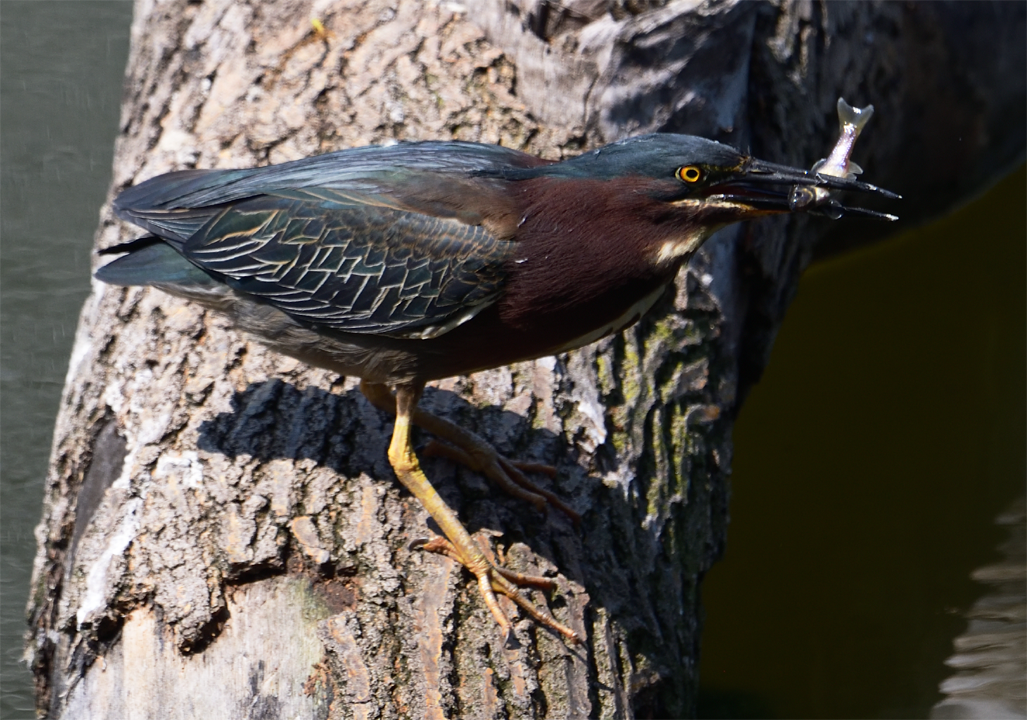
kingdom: Animalia
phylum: Chordata
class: Aves
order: Pelecaniformes
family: Ardeidae
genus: Butorides
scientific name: Butorides virescens
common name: Green heron
